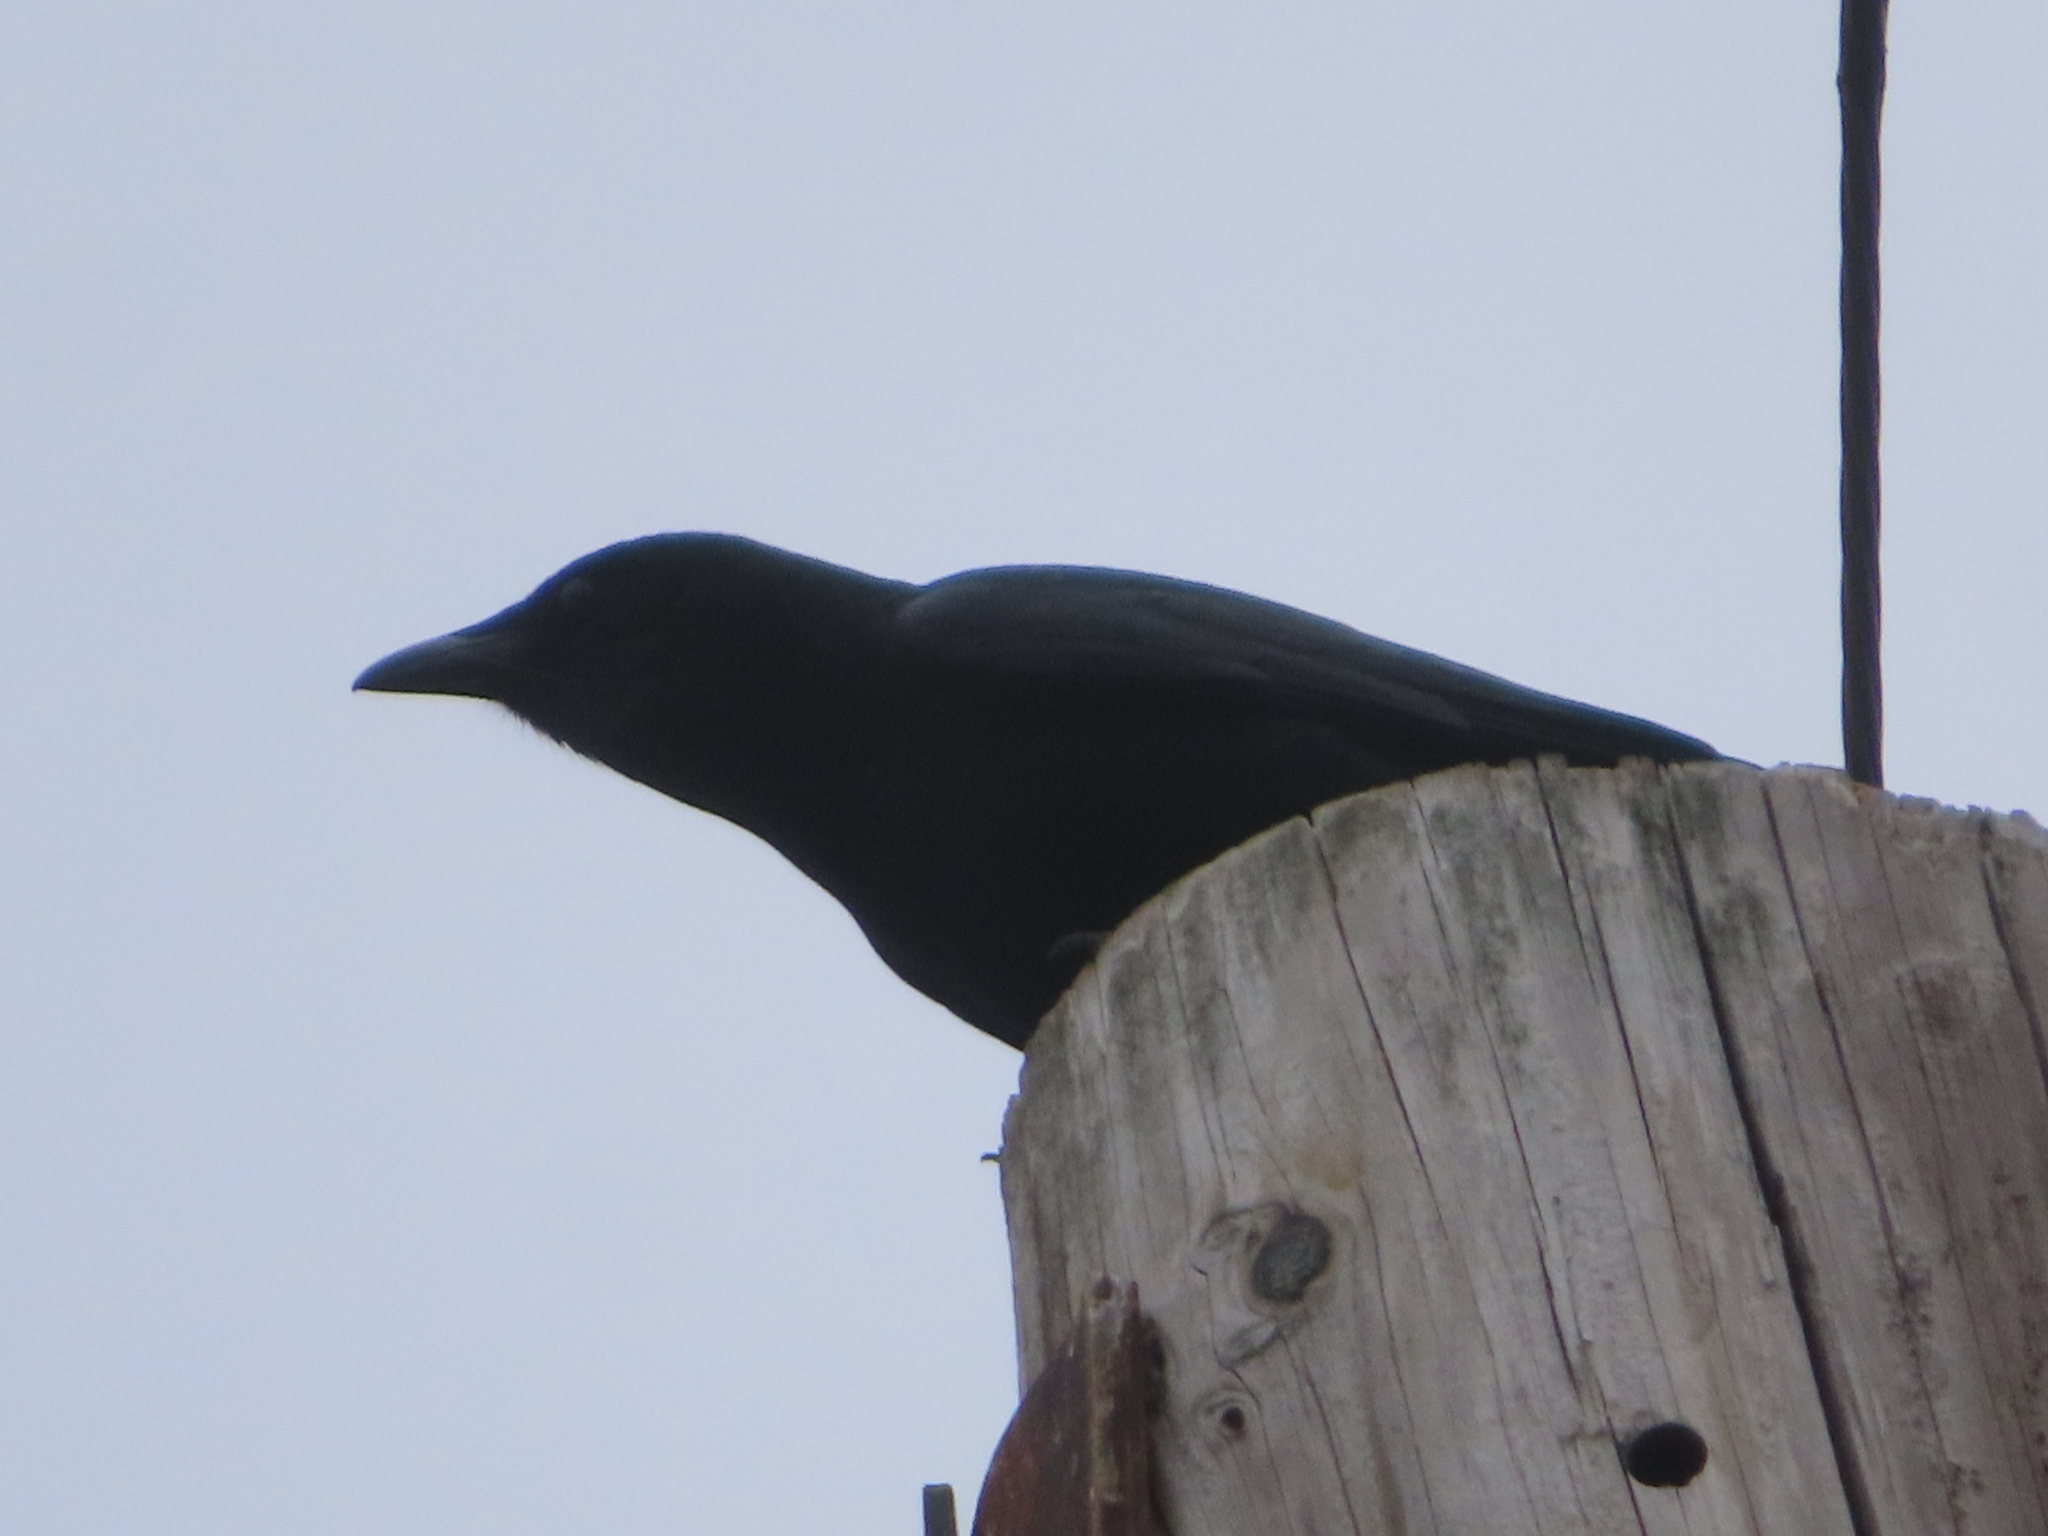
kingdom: Animalia
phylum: Chordata
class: Aves
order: Passeriformes
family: Corvidae
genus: Corvus
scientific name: Corvus ossifragus
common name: Fish crow
